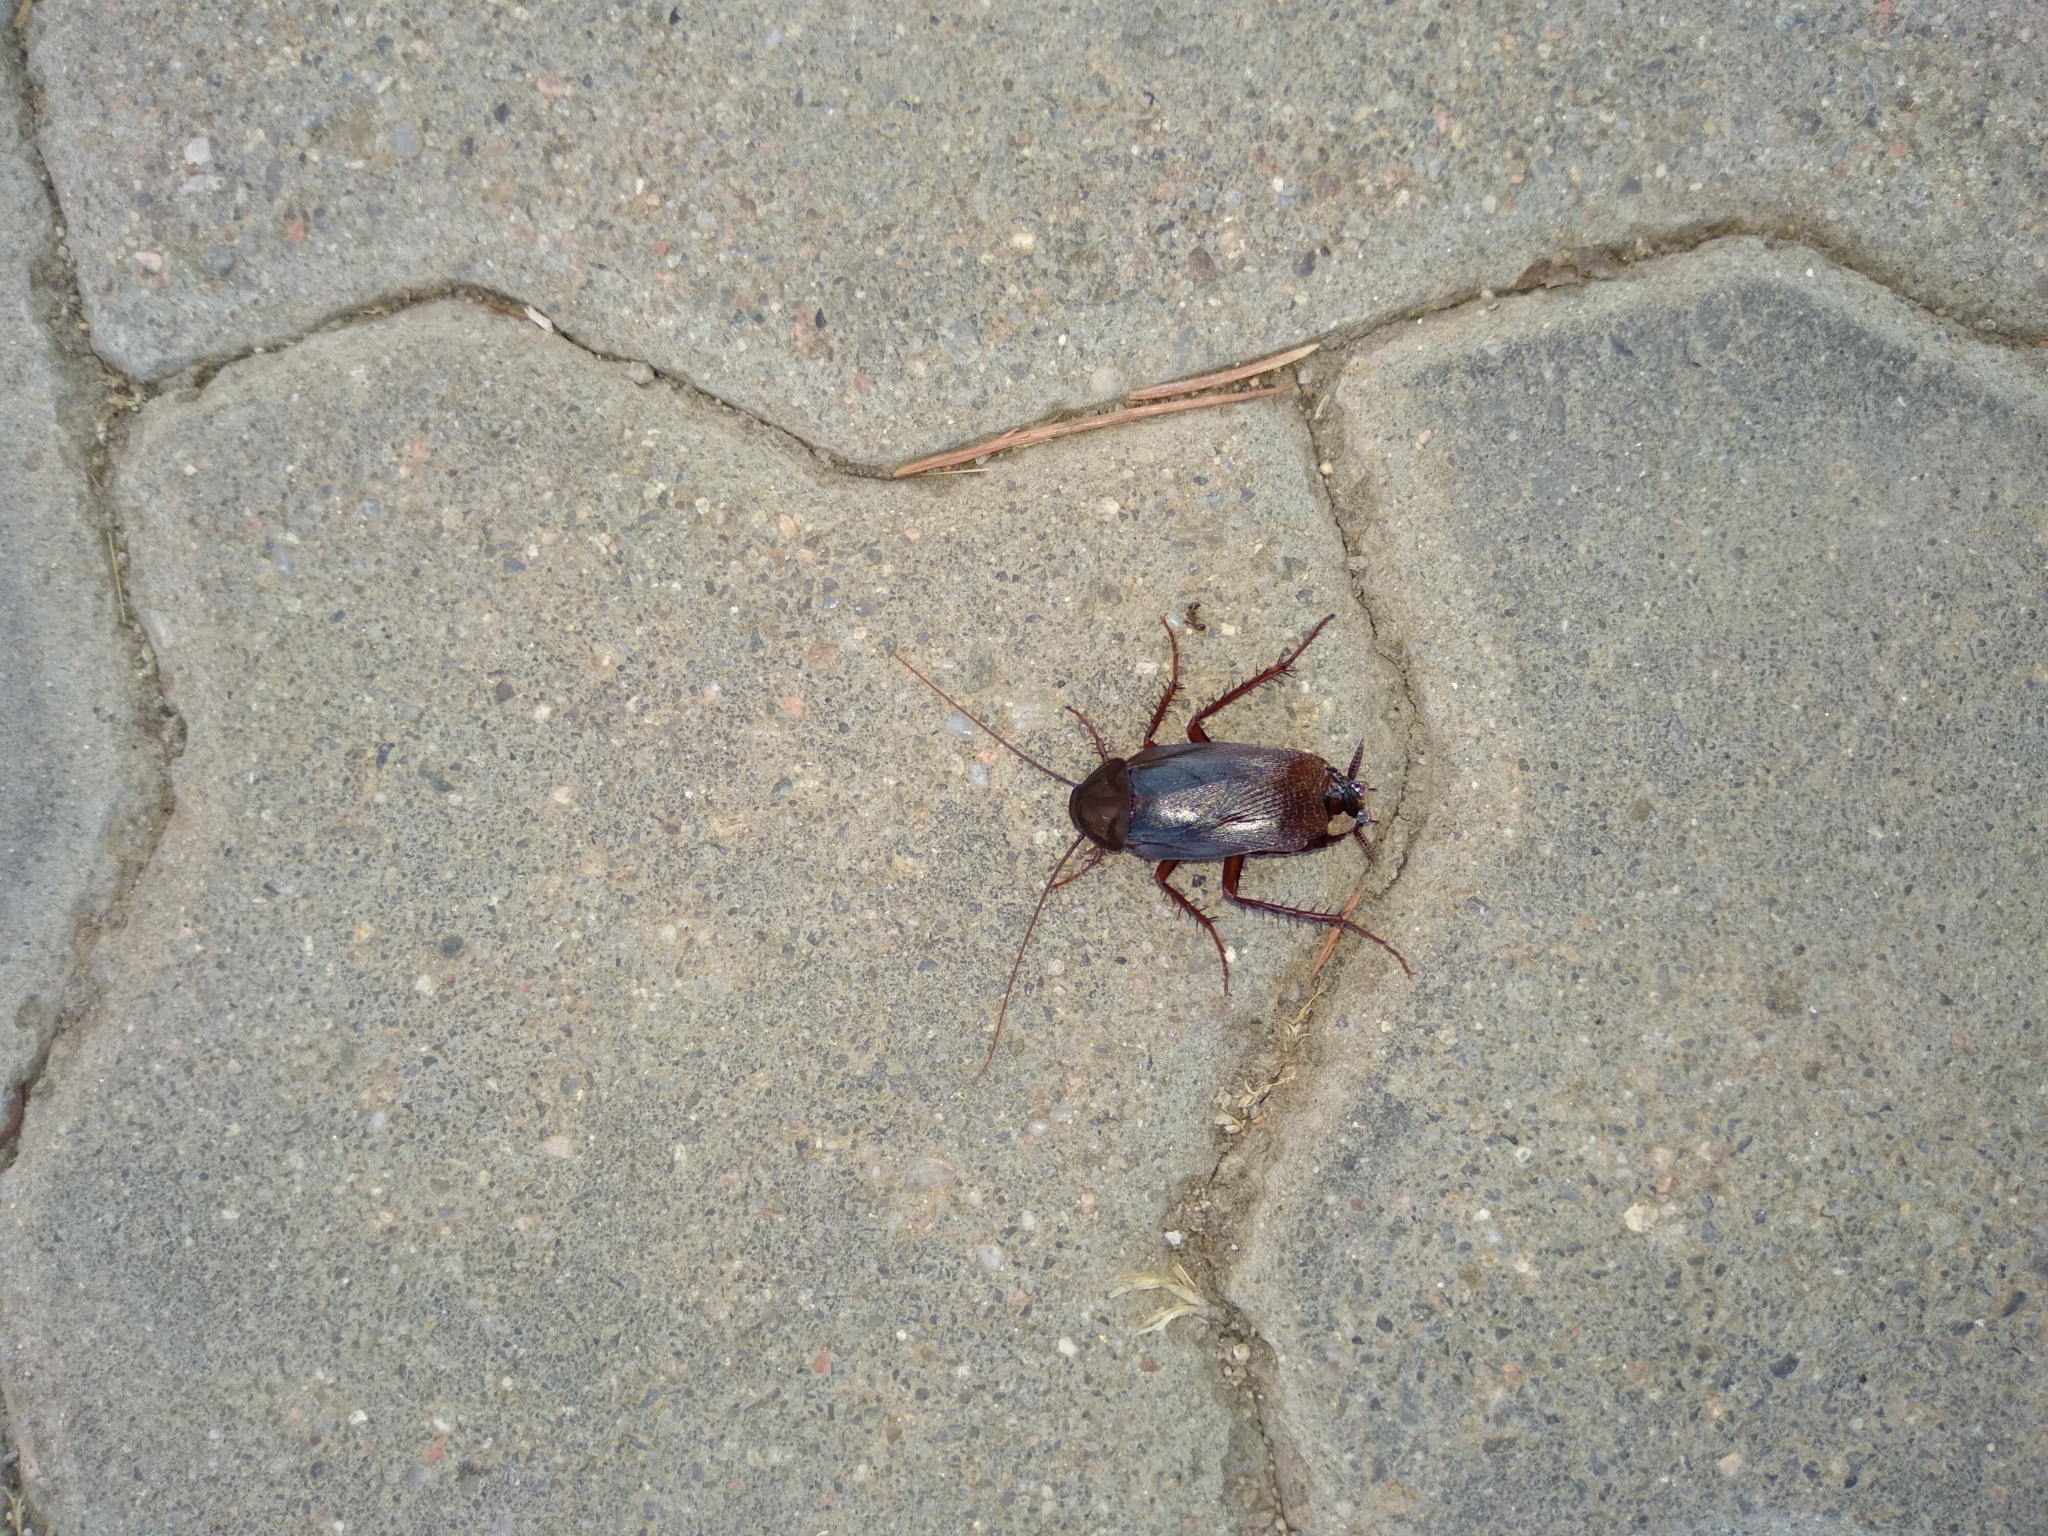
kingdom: Animalia
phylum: Arthropoda
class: Insecta
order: Blattodea
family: Blattidae
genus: Blatta
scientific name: Blatta orientalis
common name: Oriental cockroach
